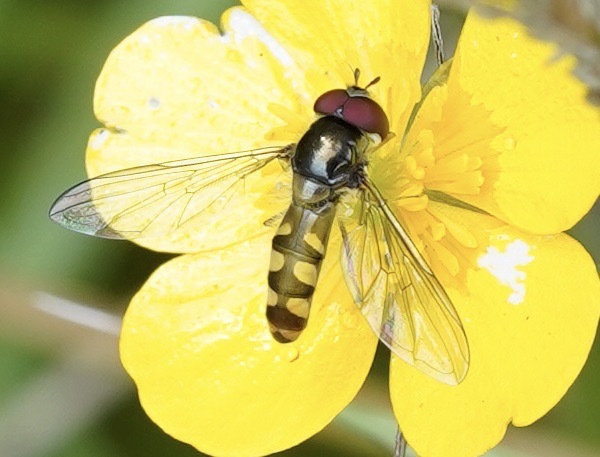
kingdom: Animalia
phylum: Arthropoda
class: Insecta
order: Diptera
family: Syrphidae
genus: Meliscaeva
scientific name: Meliscaeva auricollis
